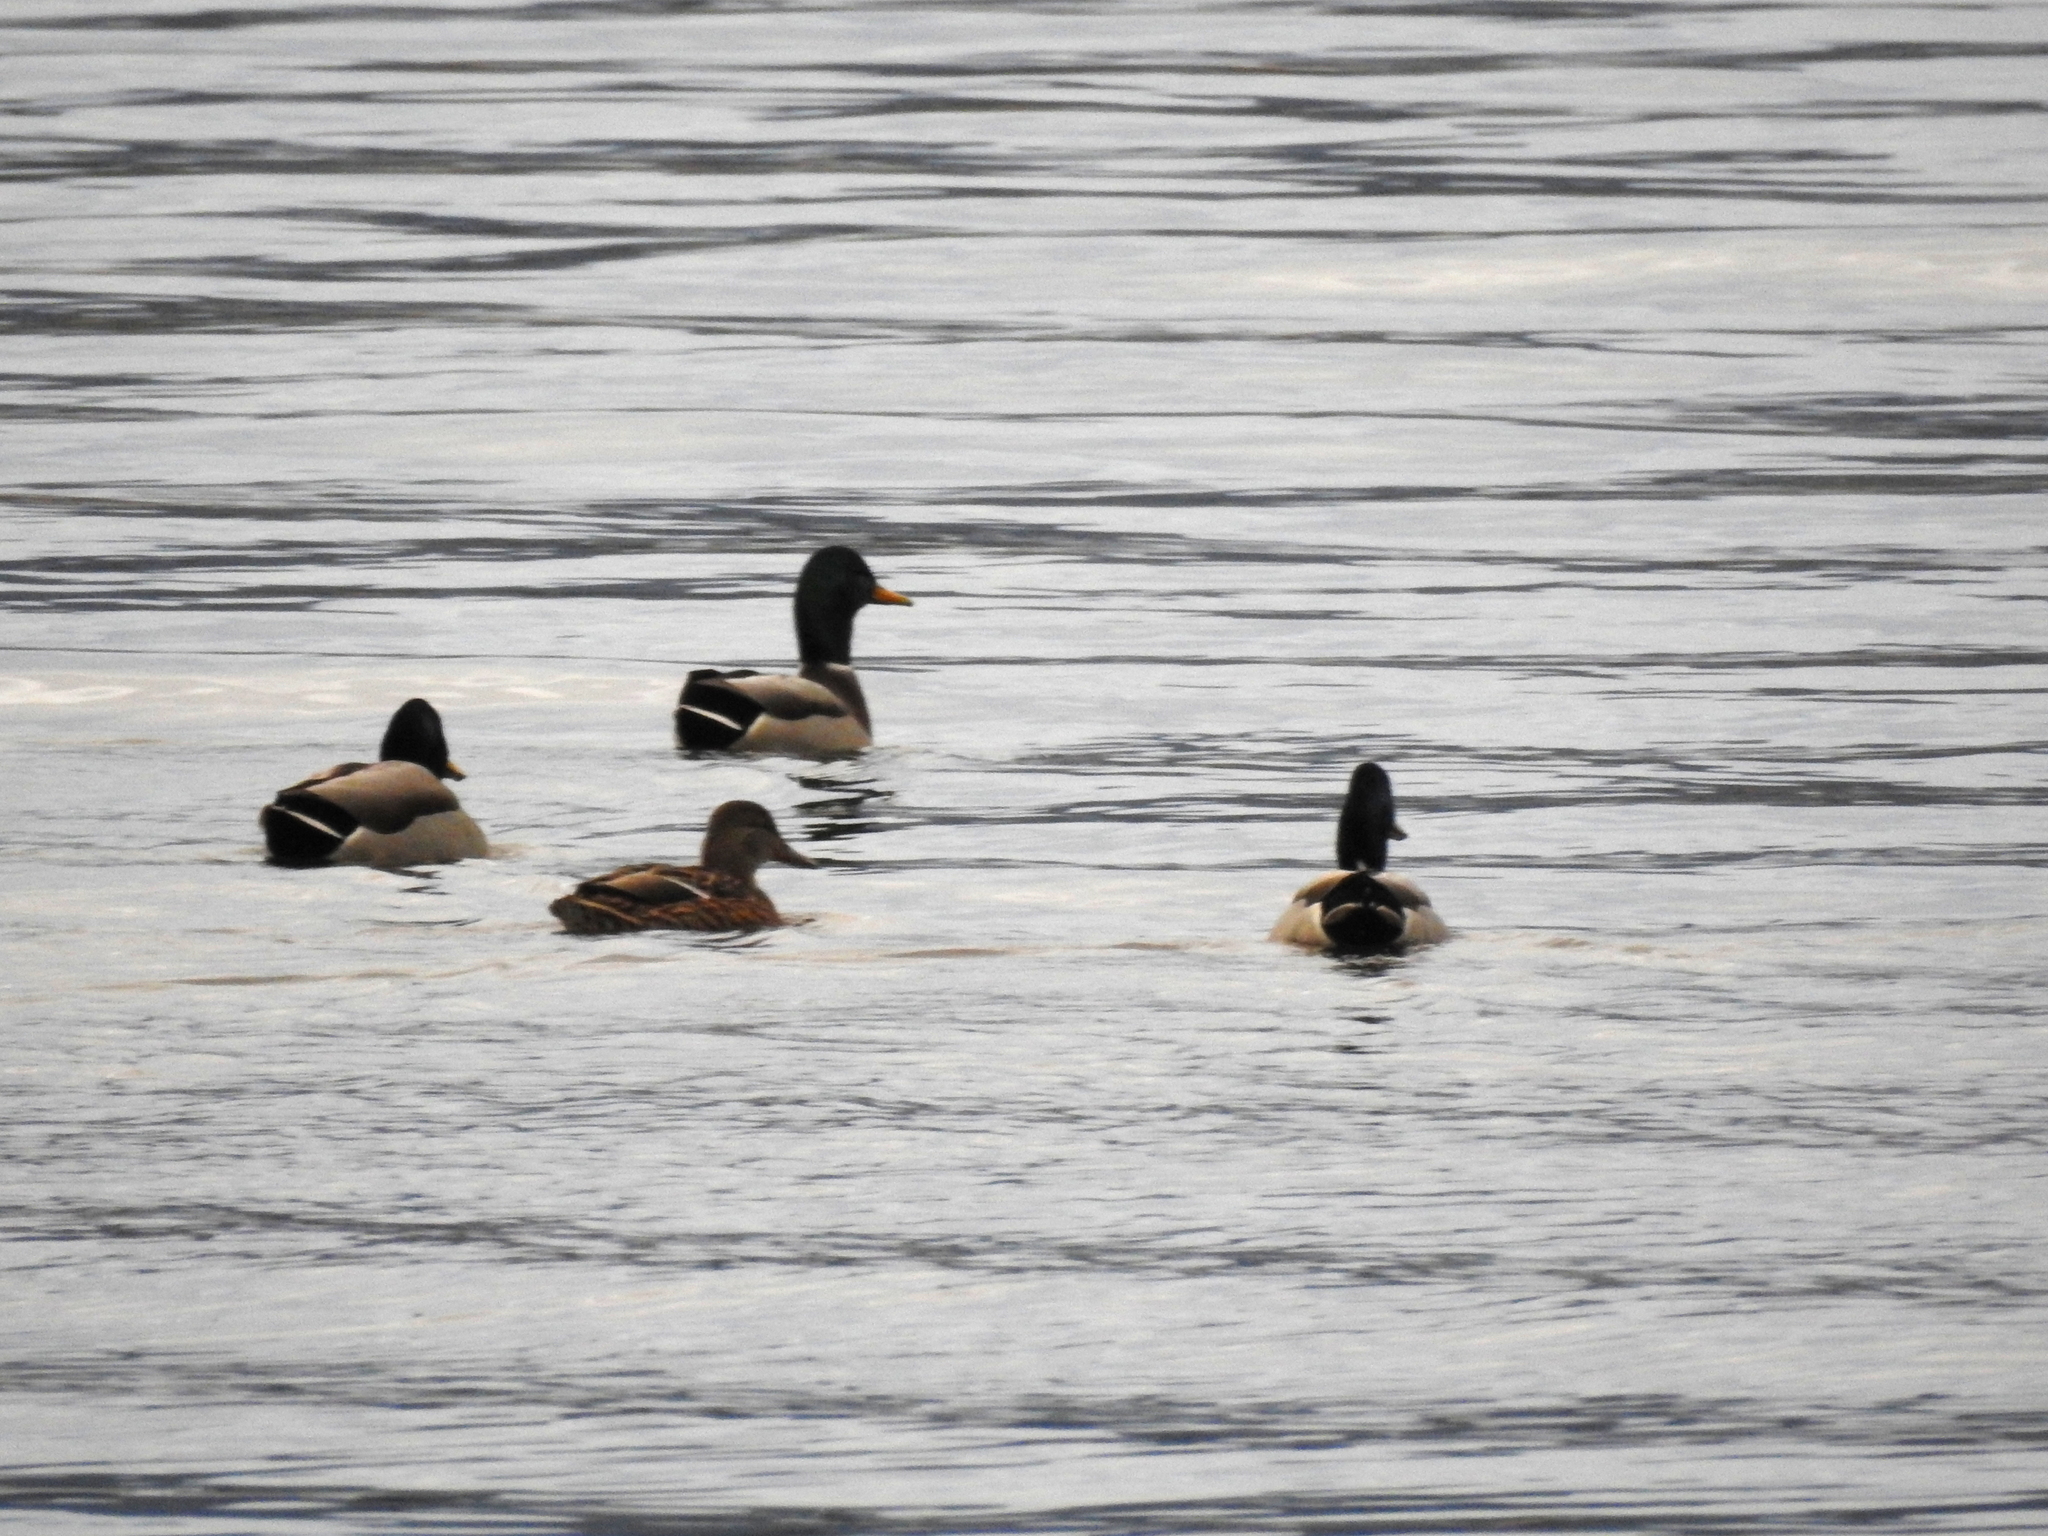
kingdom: Animalia
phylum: Chordata
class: Aves
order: Anseriformes
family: Anatidae
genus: Anas
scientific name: Anas platyrhynchos
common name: Mallard
